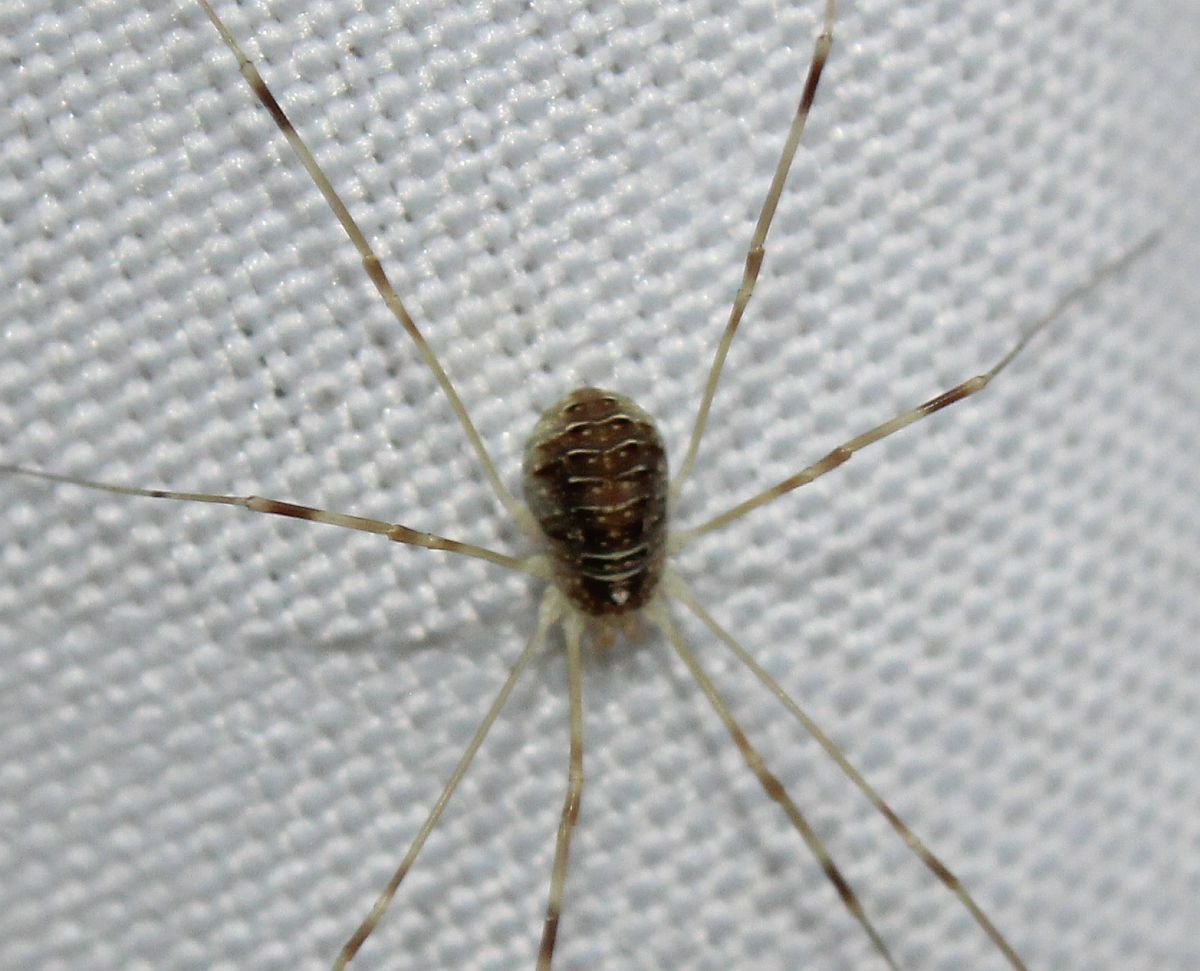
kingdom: Animalia
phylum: Arthropoda
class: Arachnida
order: Opiliones
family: Phalangiidae
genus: Opilio
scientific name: Opilio canestrinii
